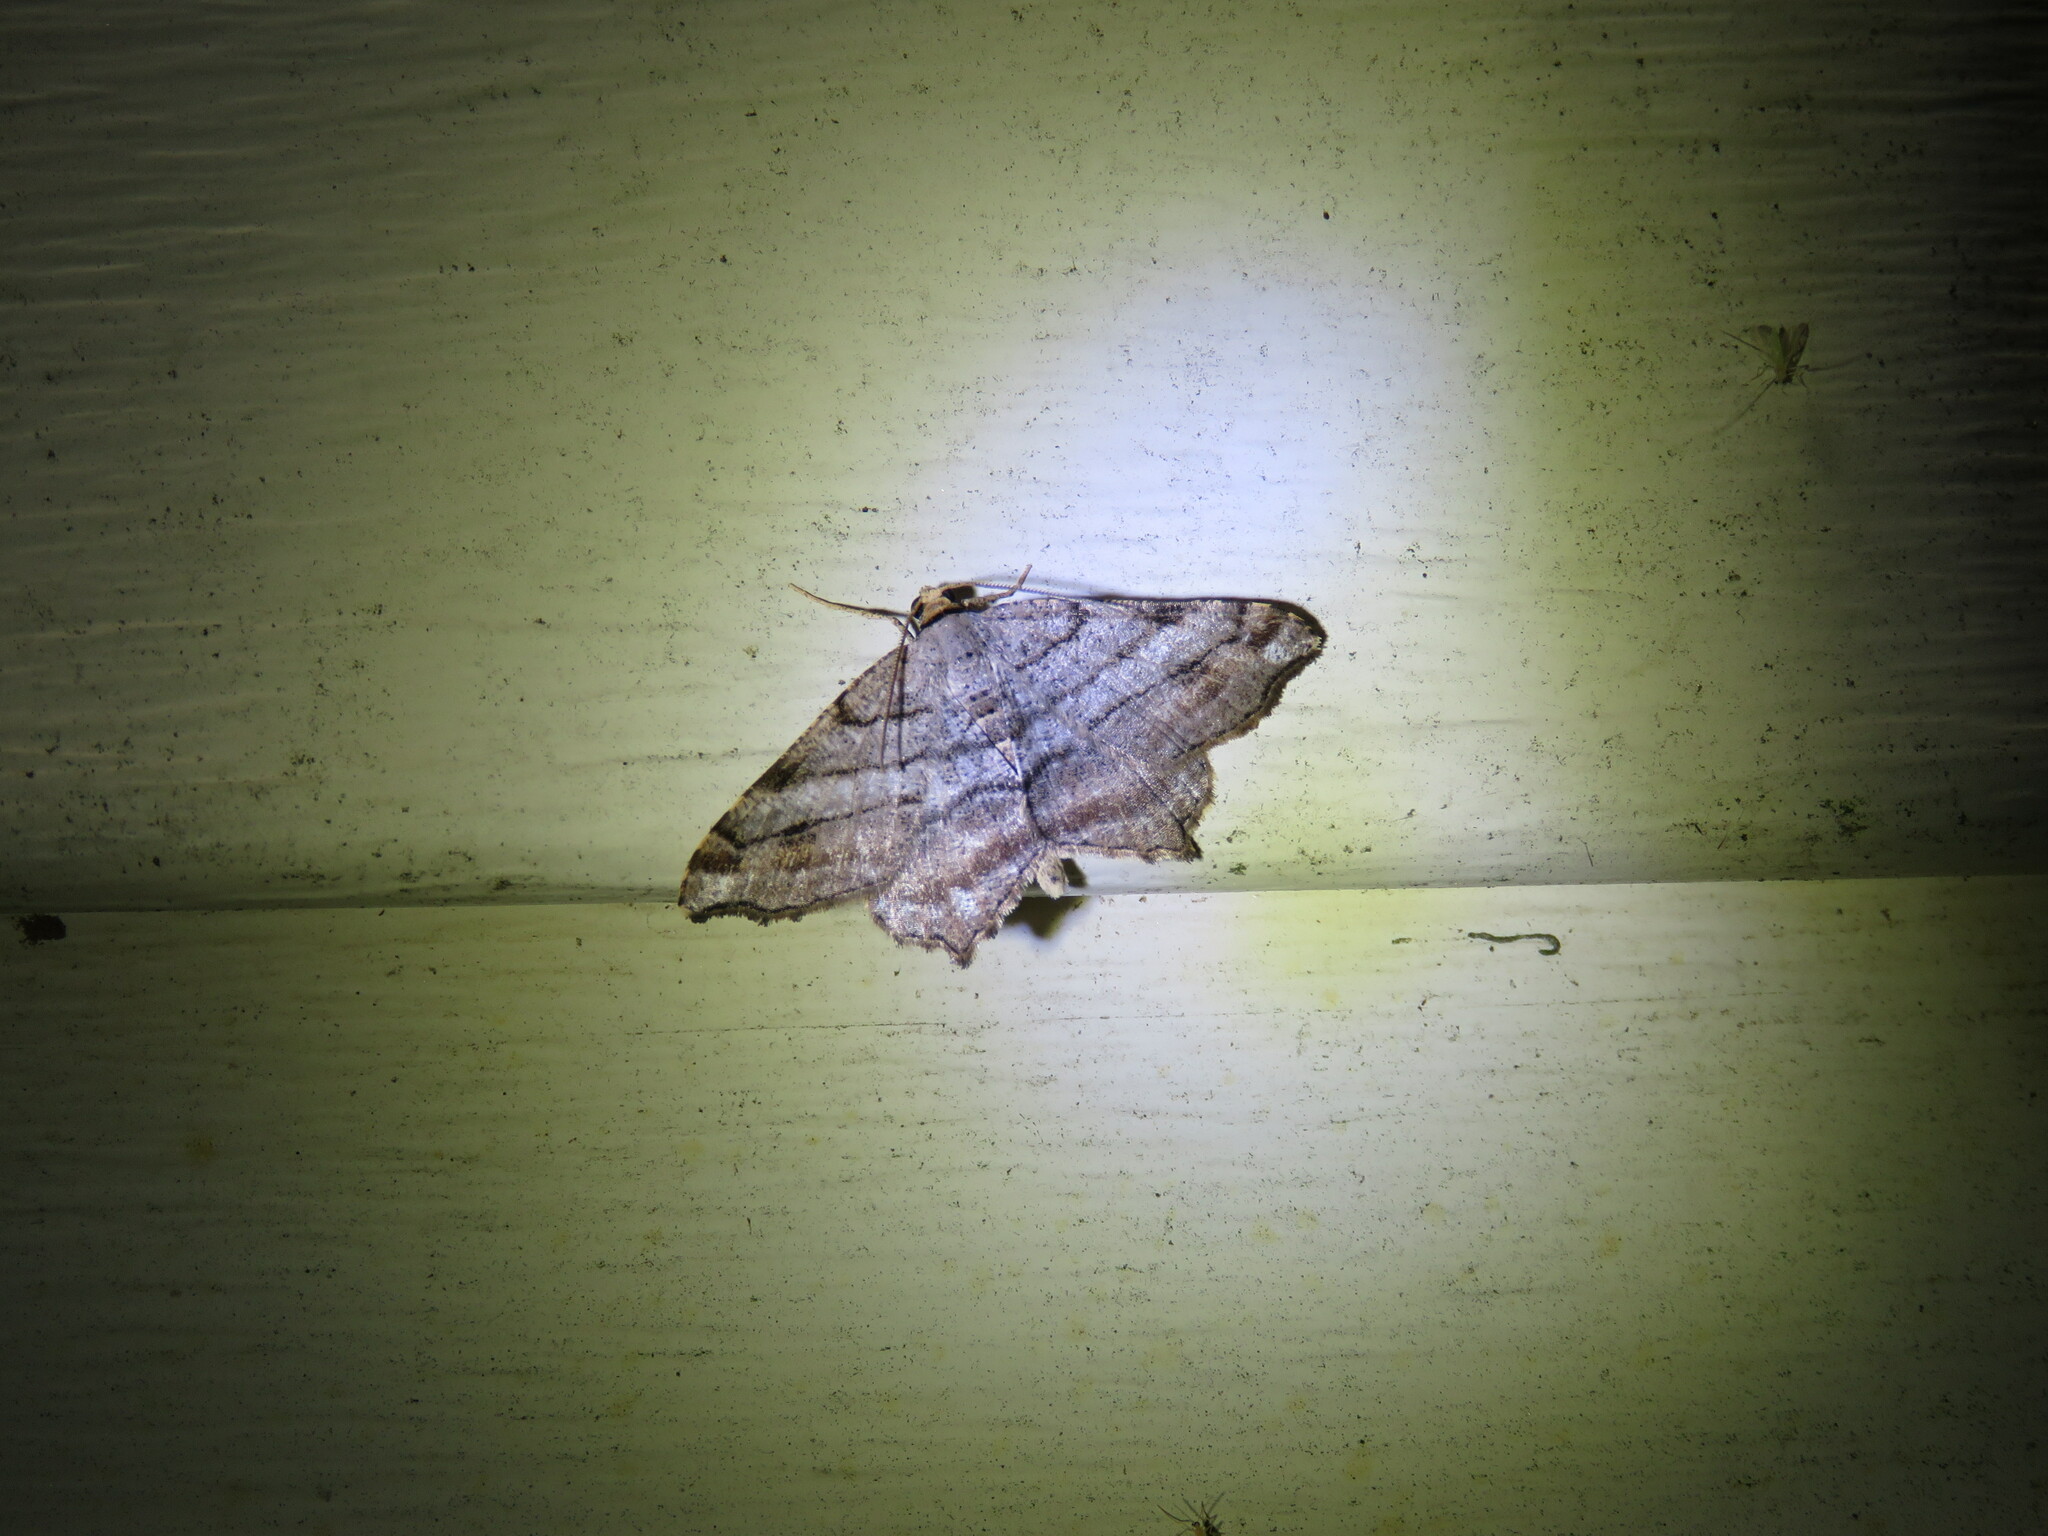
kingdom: Animalia
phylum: Arthropoda
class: Insecta
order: Lepidoptera
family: Geometridae
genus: Macaria
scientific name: Macaria multilineata
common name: Many-lined angle
